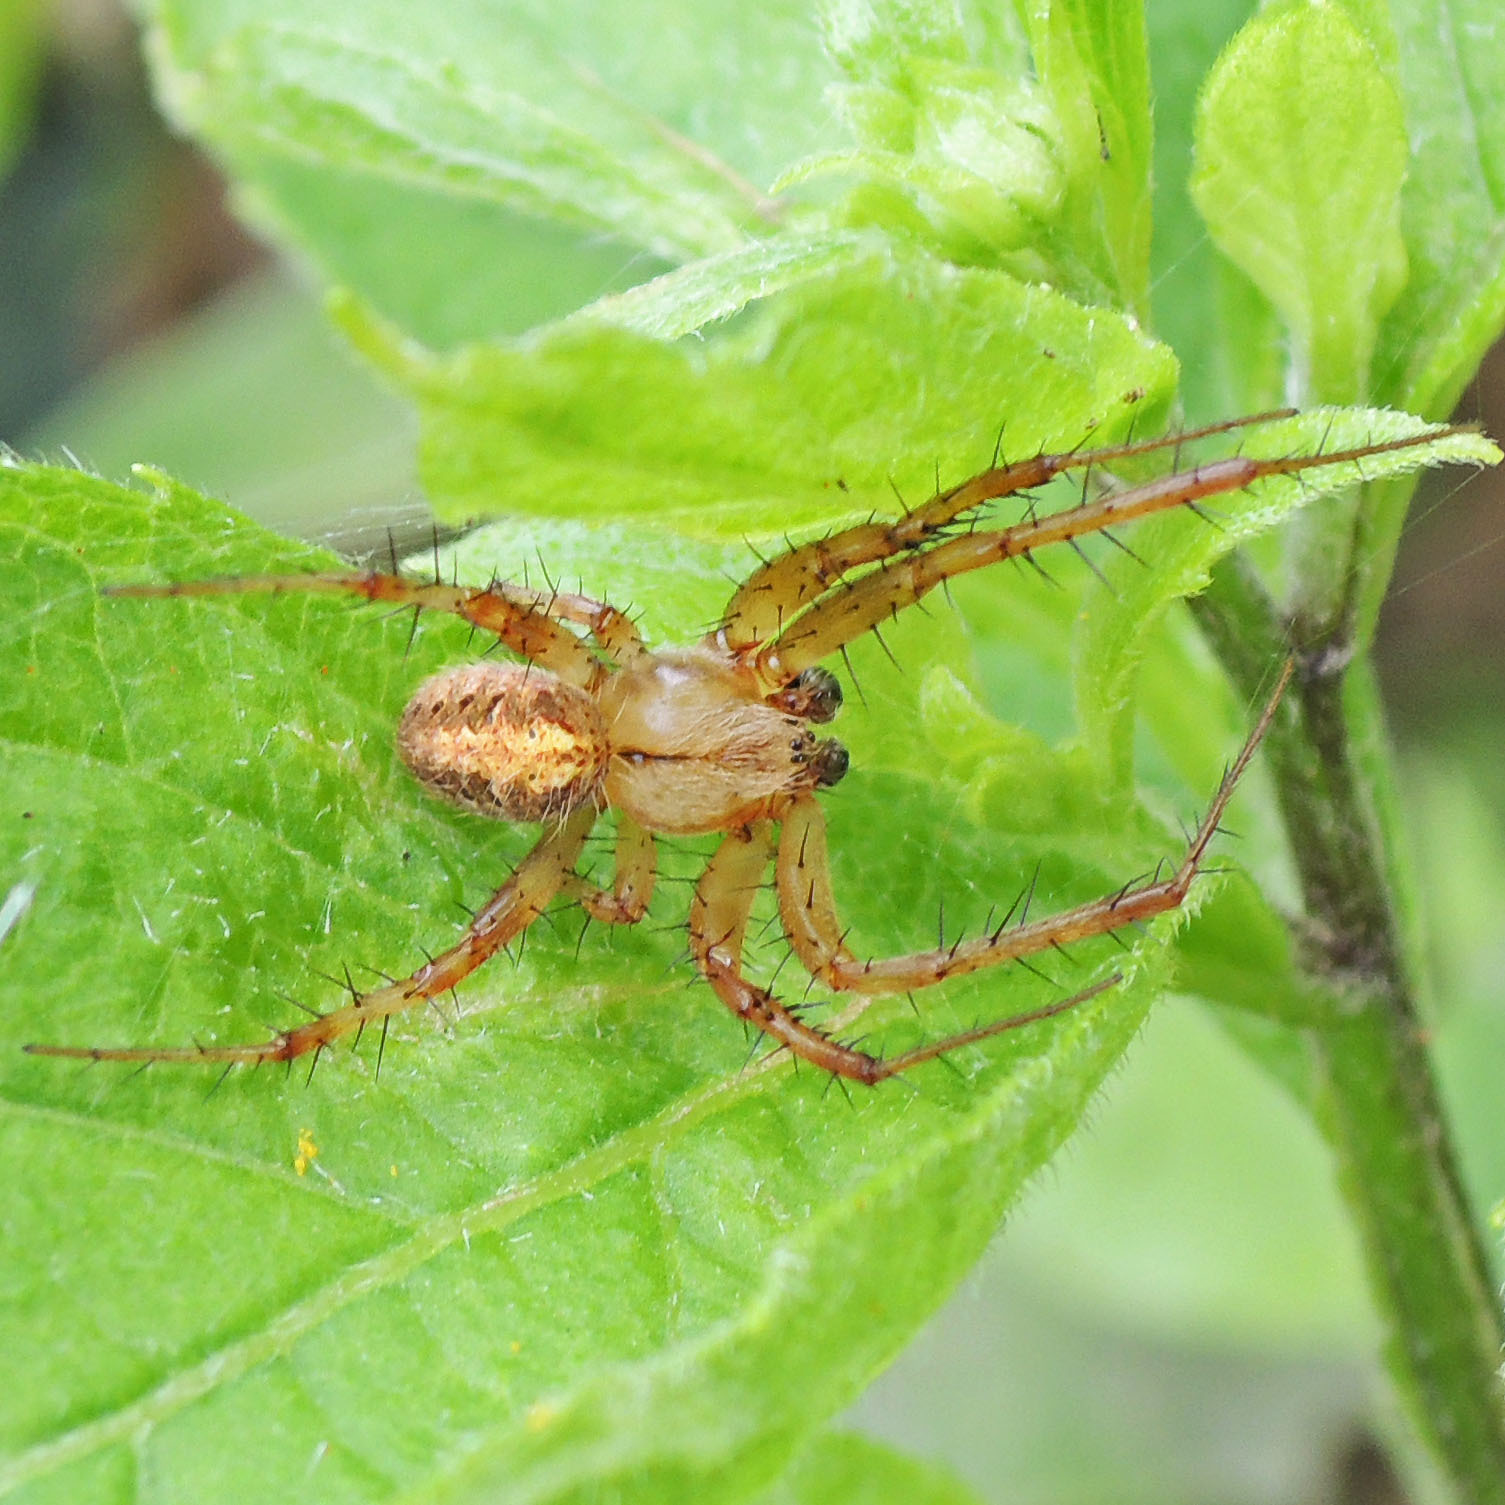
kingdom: Animalia
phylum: Arthropoda
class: Arachnida
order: Araneae
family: Araneidae
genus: Neoscona
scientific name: Neoscona arabesca
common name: Orb weavers
